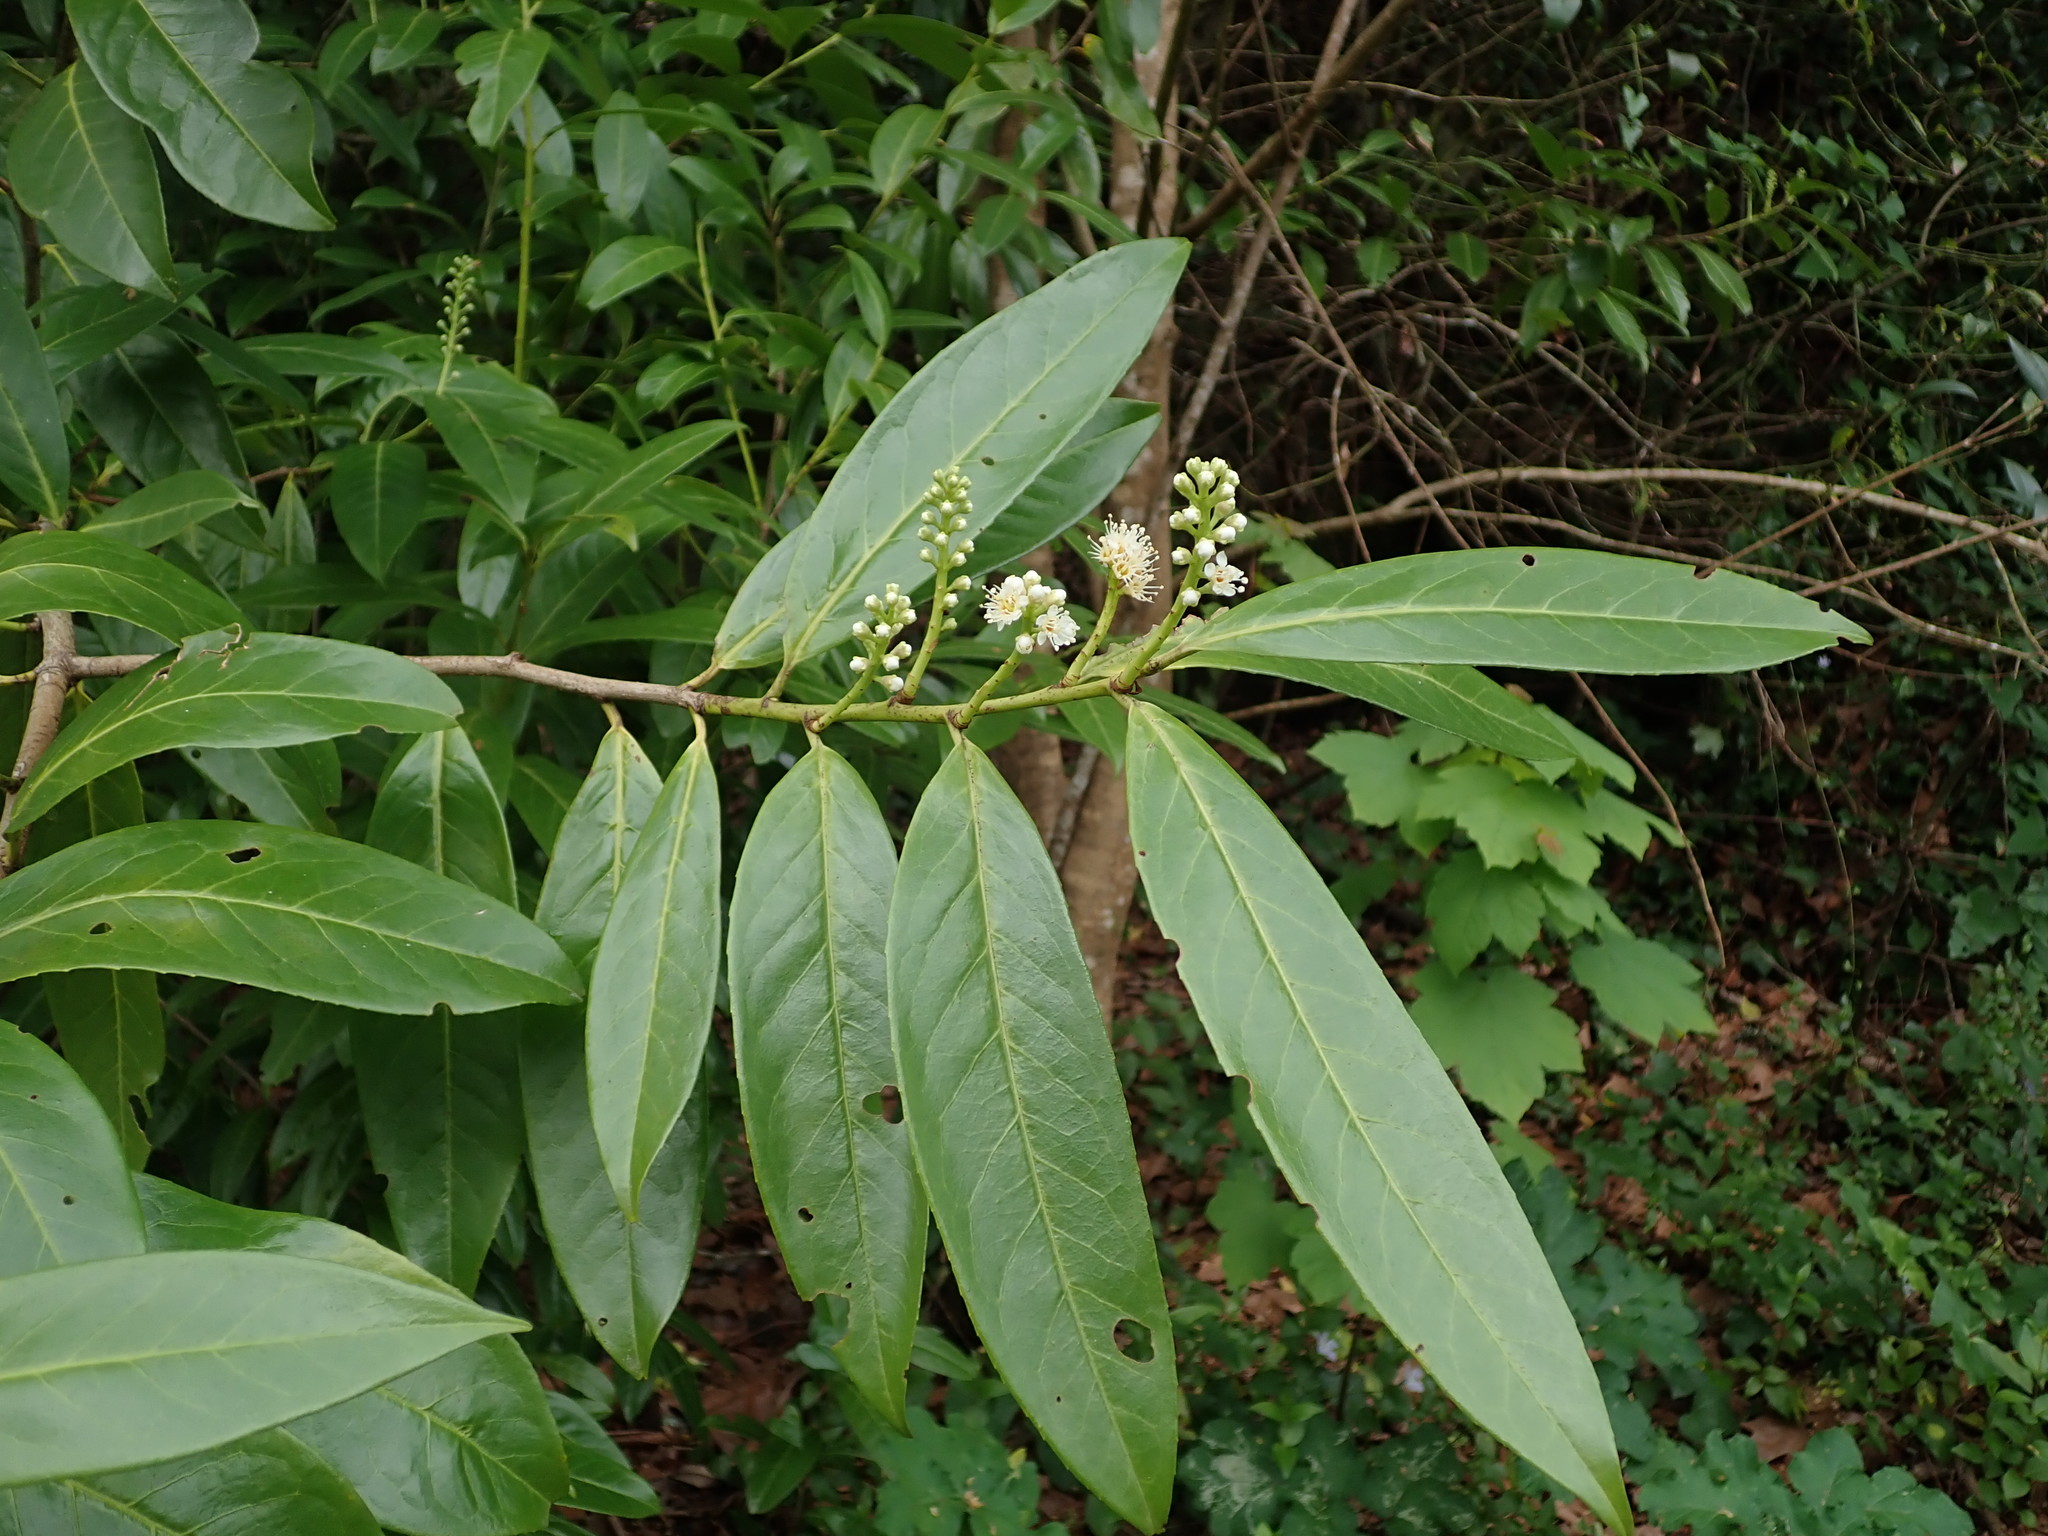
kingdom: Plantae
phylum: Tracheophyta
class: Magnoliopsida
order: Rosales
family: Rosaceae
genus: Prunus
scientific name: Prunus laurocerasus
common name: Cherry laurel
